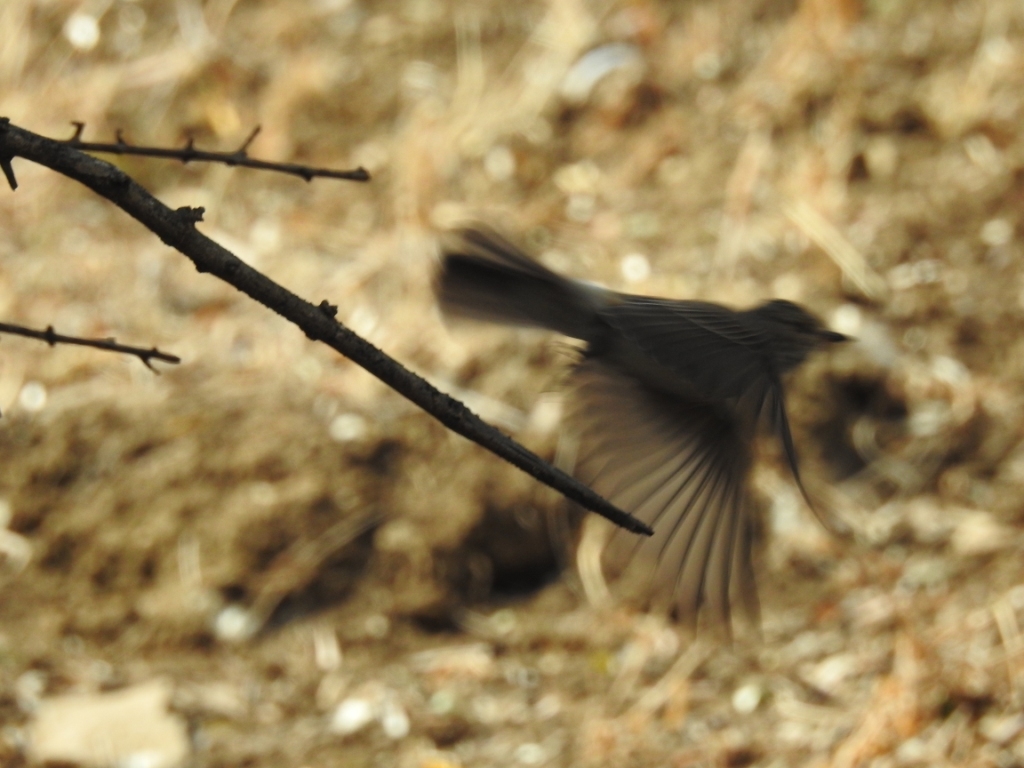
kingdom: Animalia
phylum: Chordata
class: Aves
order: Passeriformes
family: Muscicapidae
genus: Muscicapa
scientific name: Muscicapa striata
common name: Spotted flycatcher
